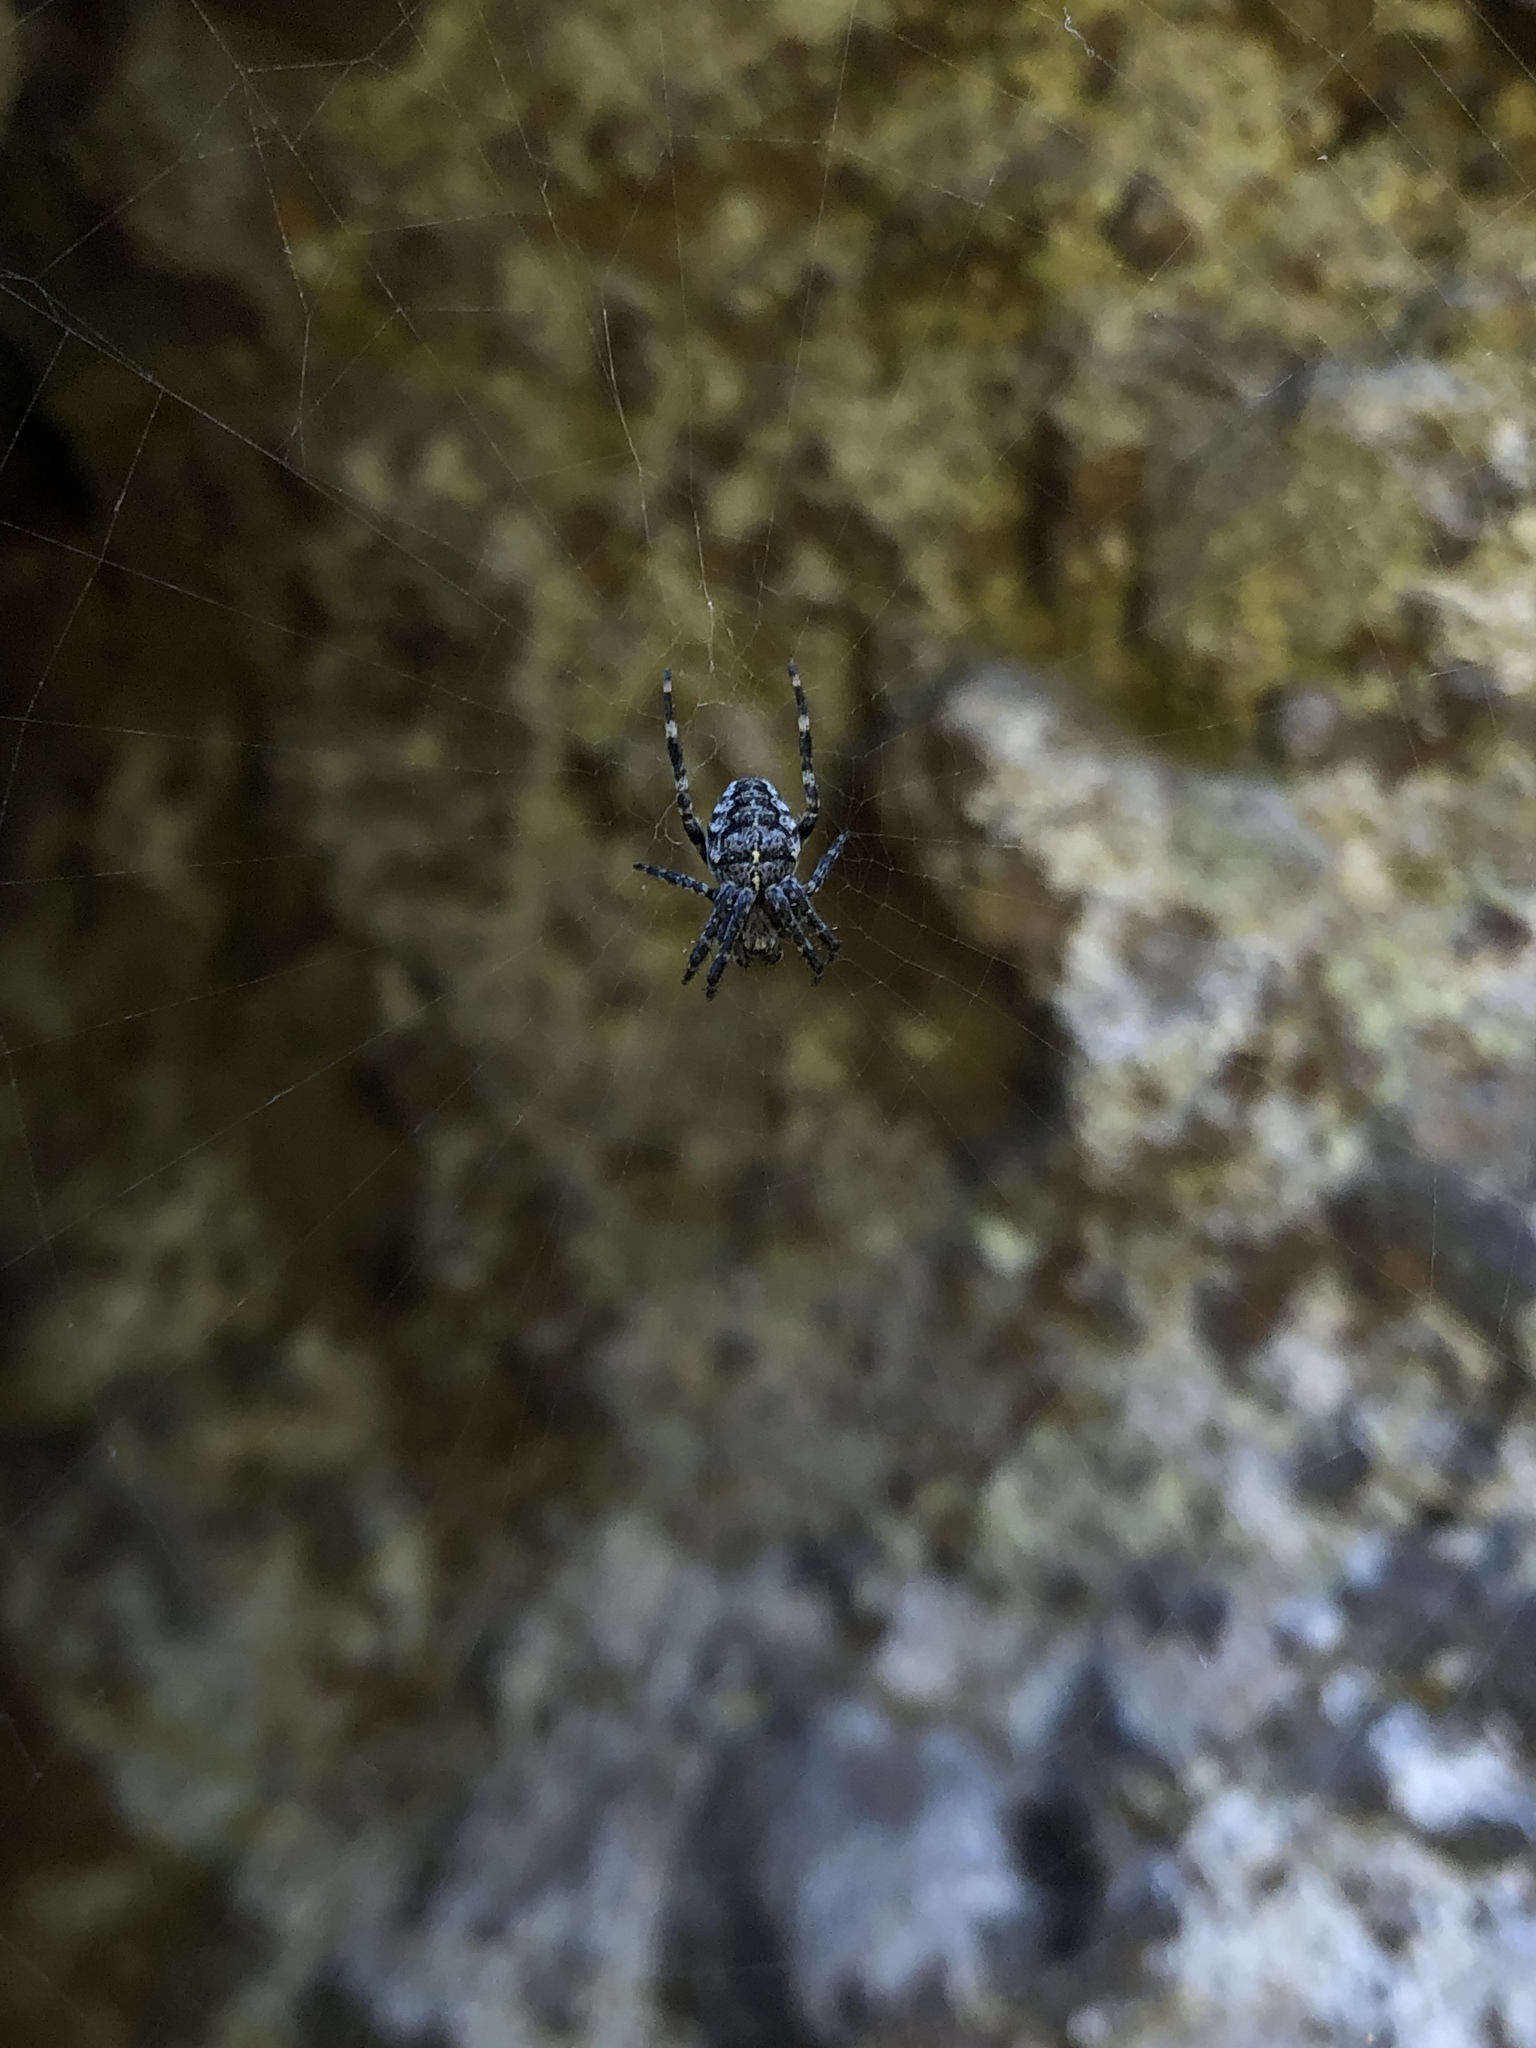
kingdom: Animalia
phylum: Arthropoda
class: Arachnida
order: Araneae
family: Araneidae
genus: Araneus
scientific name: Araneus diadematus
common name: Cross orbweaver
